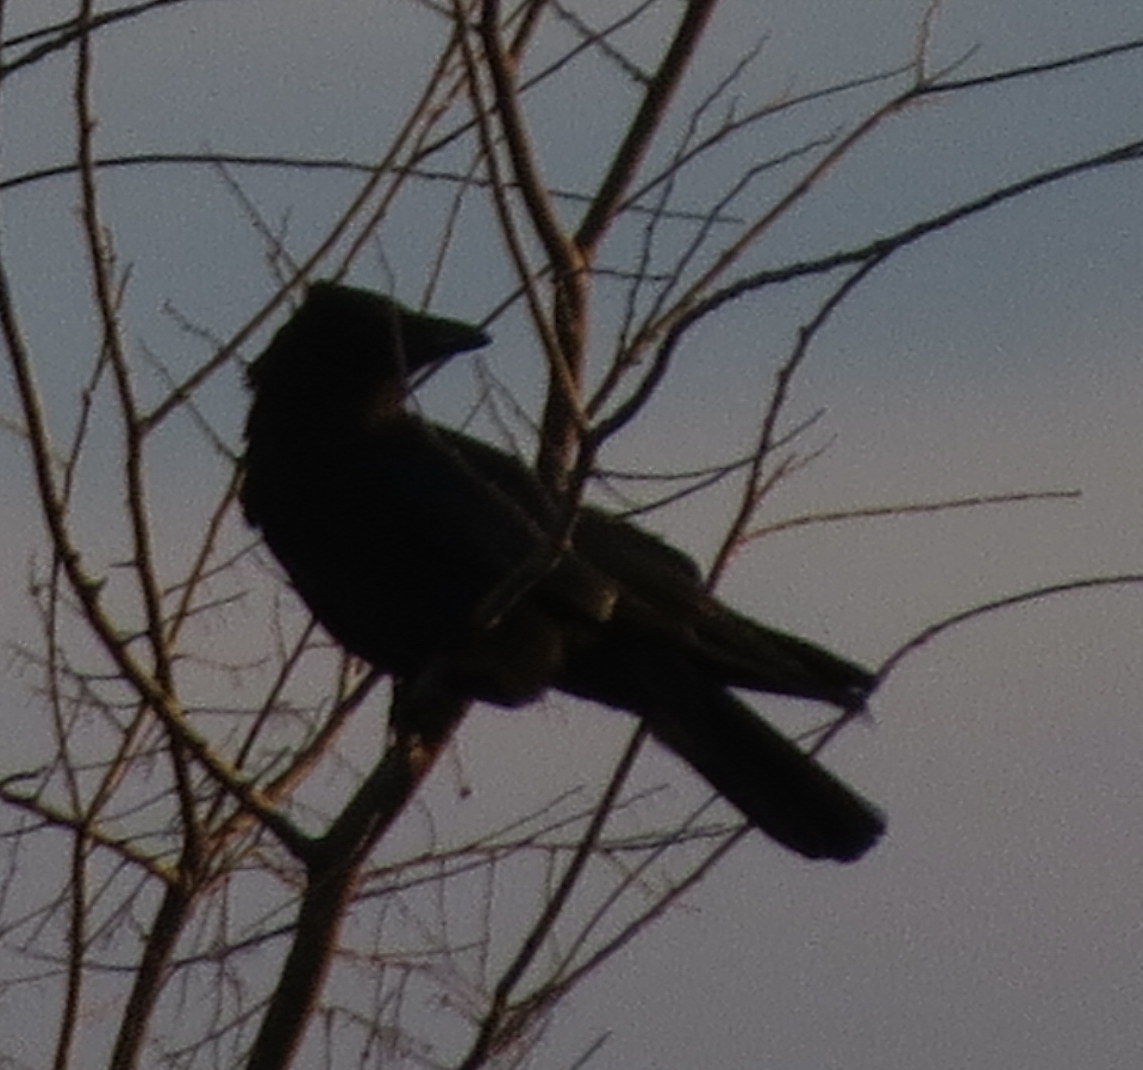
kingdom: Animalia
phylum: Chordata
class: Aves
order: Passeriformes
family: Corvidae
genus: Corvus
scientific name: Corvus brachyrhynchos
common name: American crow
